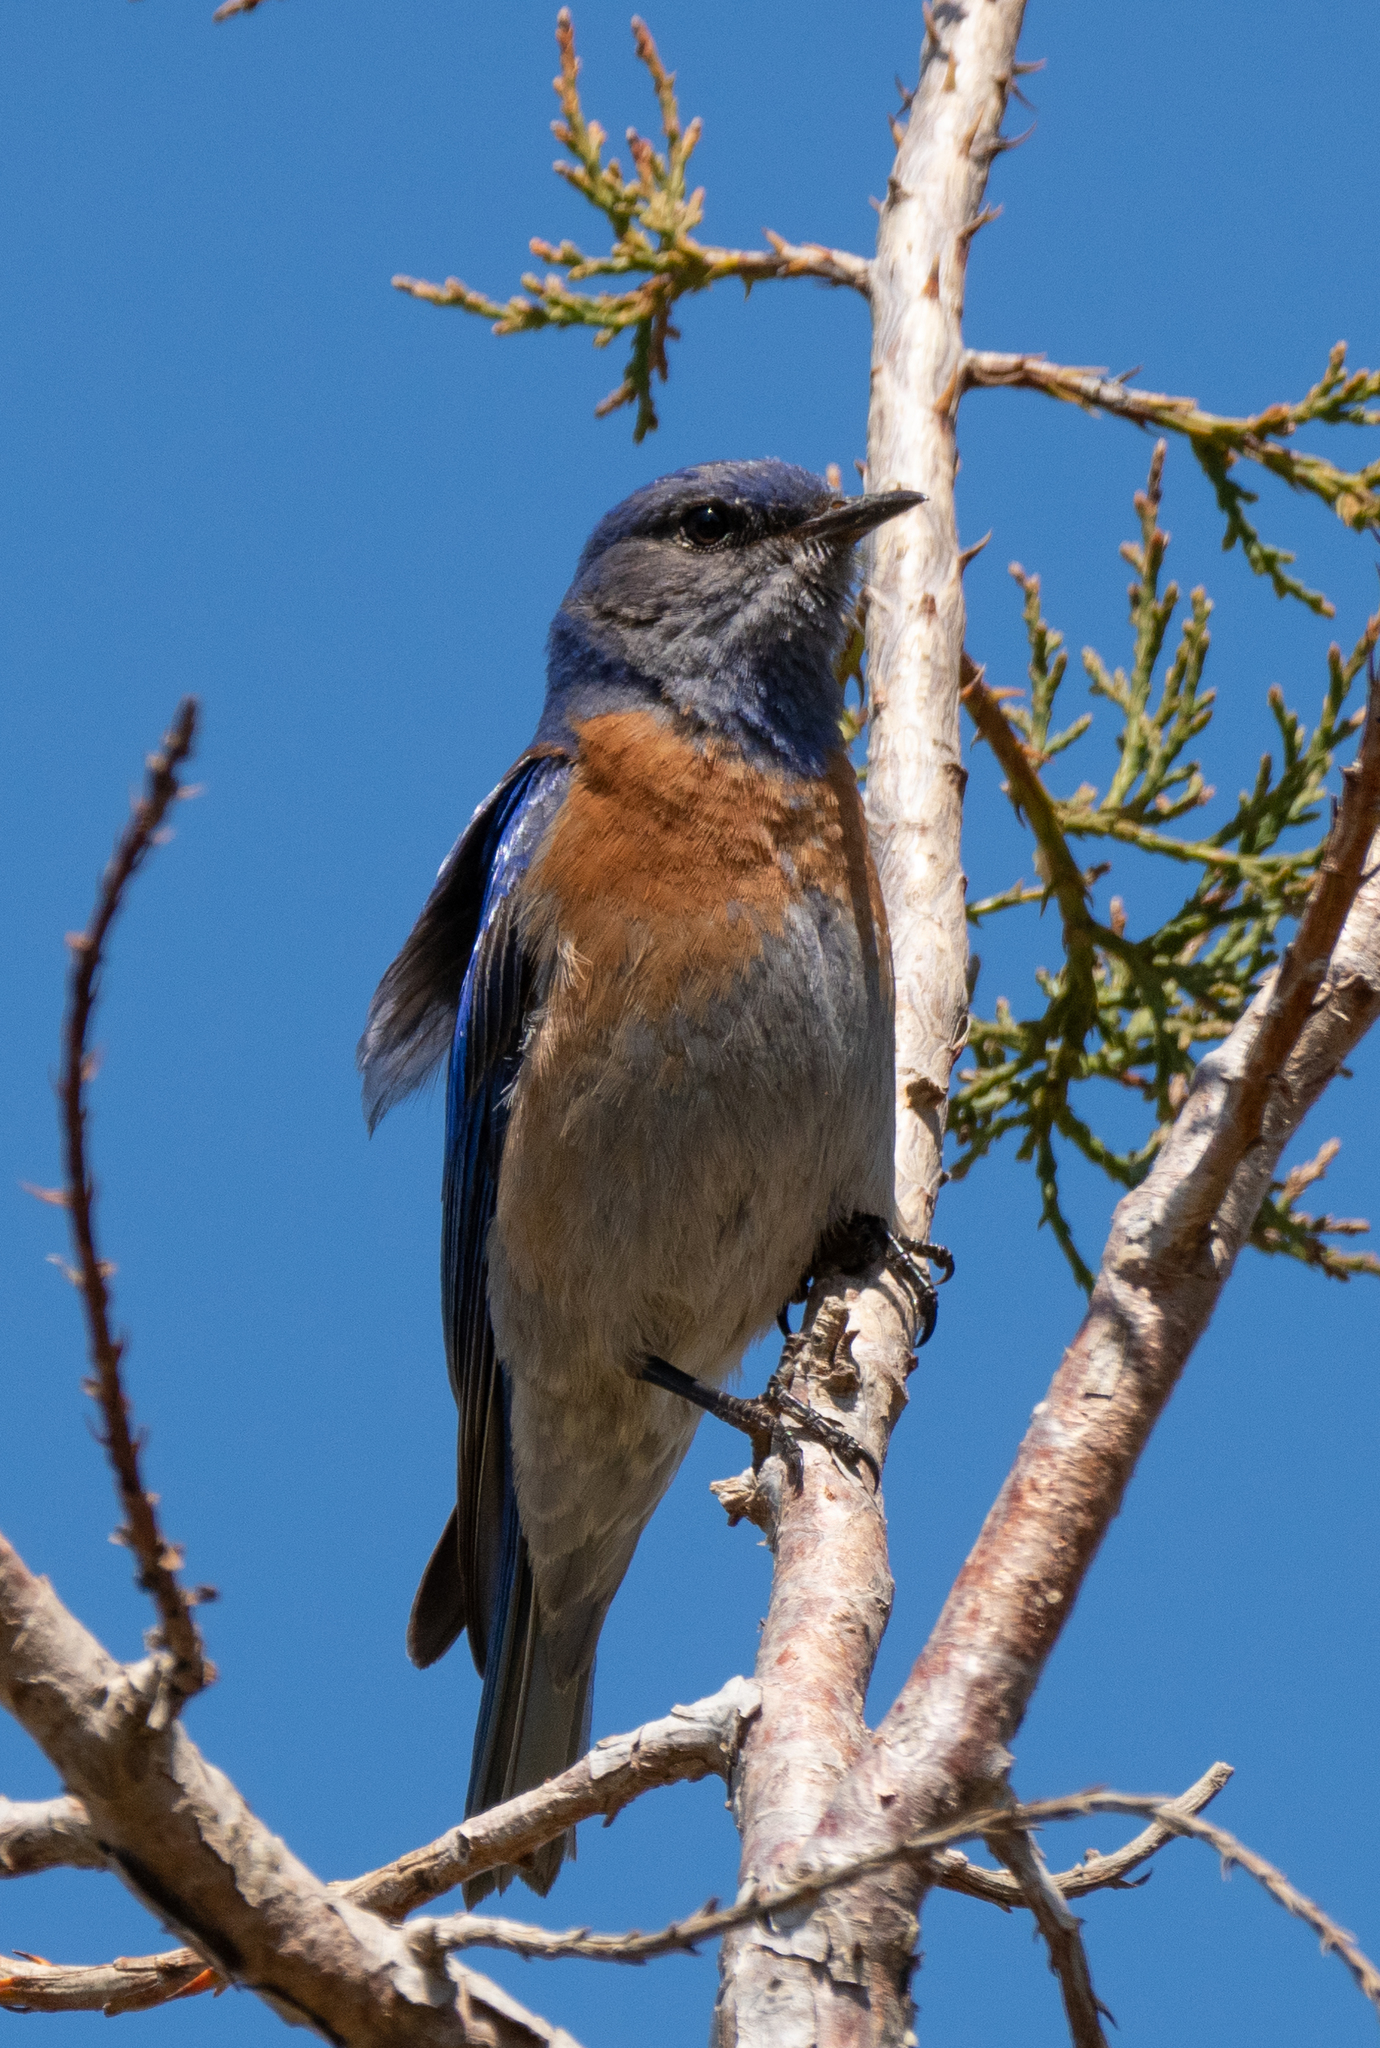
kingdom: Animalia
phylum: Chordata
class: Aves
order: Passeriformes
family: Turdidae
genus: Sialia
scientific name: Sialia mexicana
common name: Western bluebird
